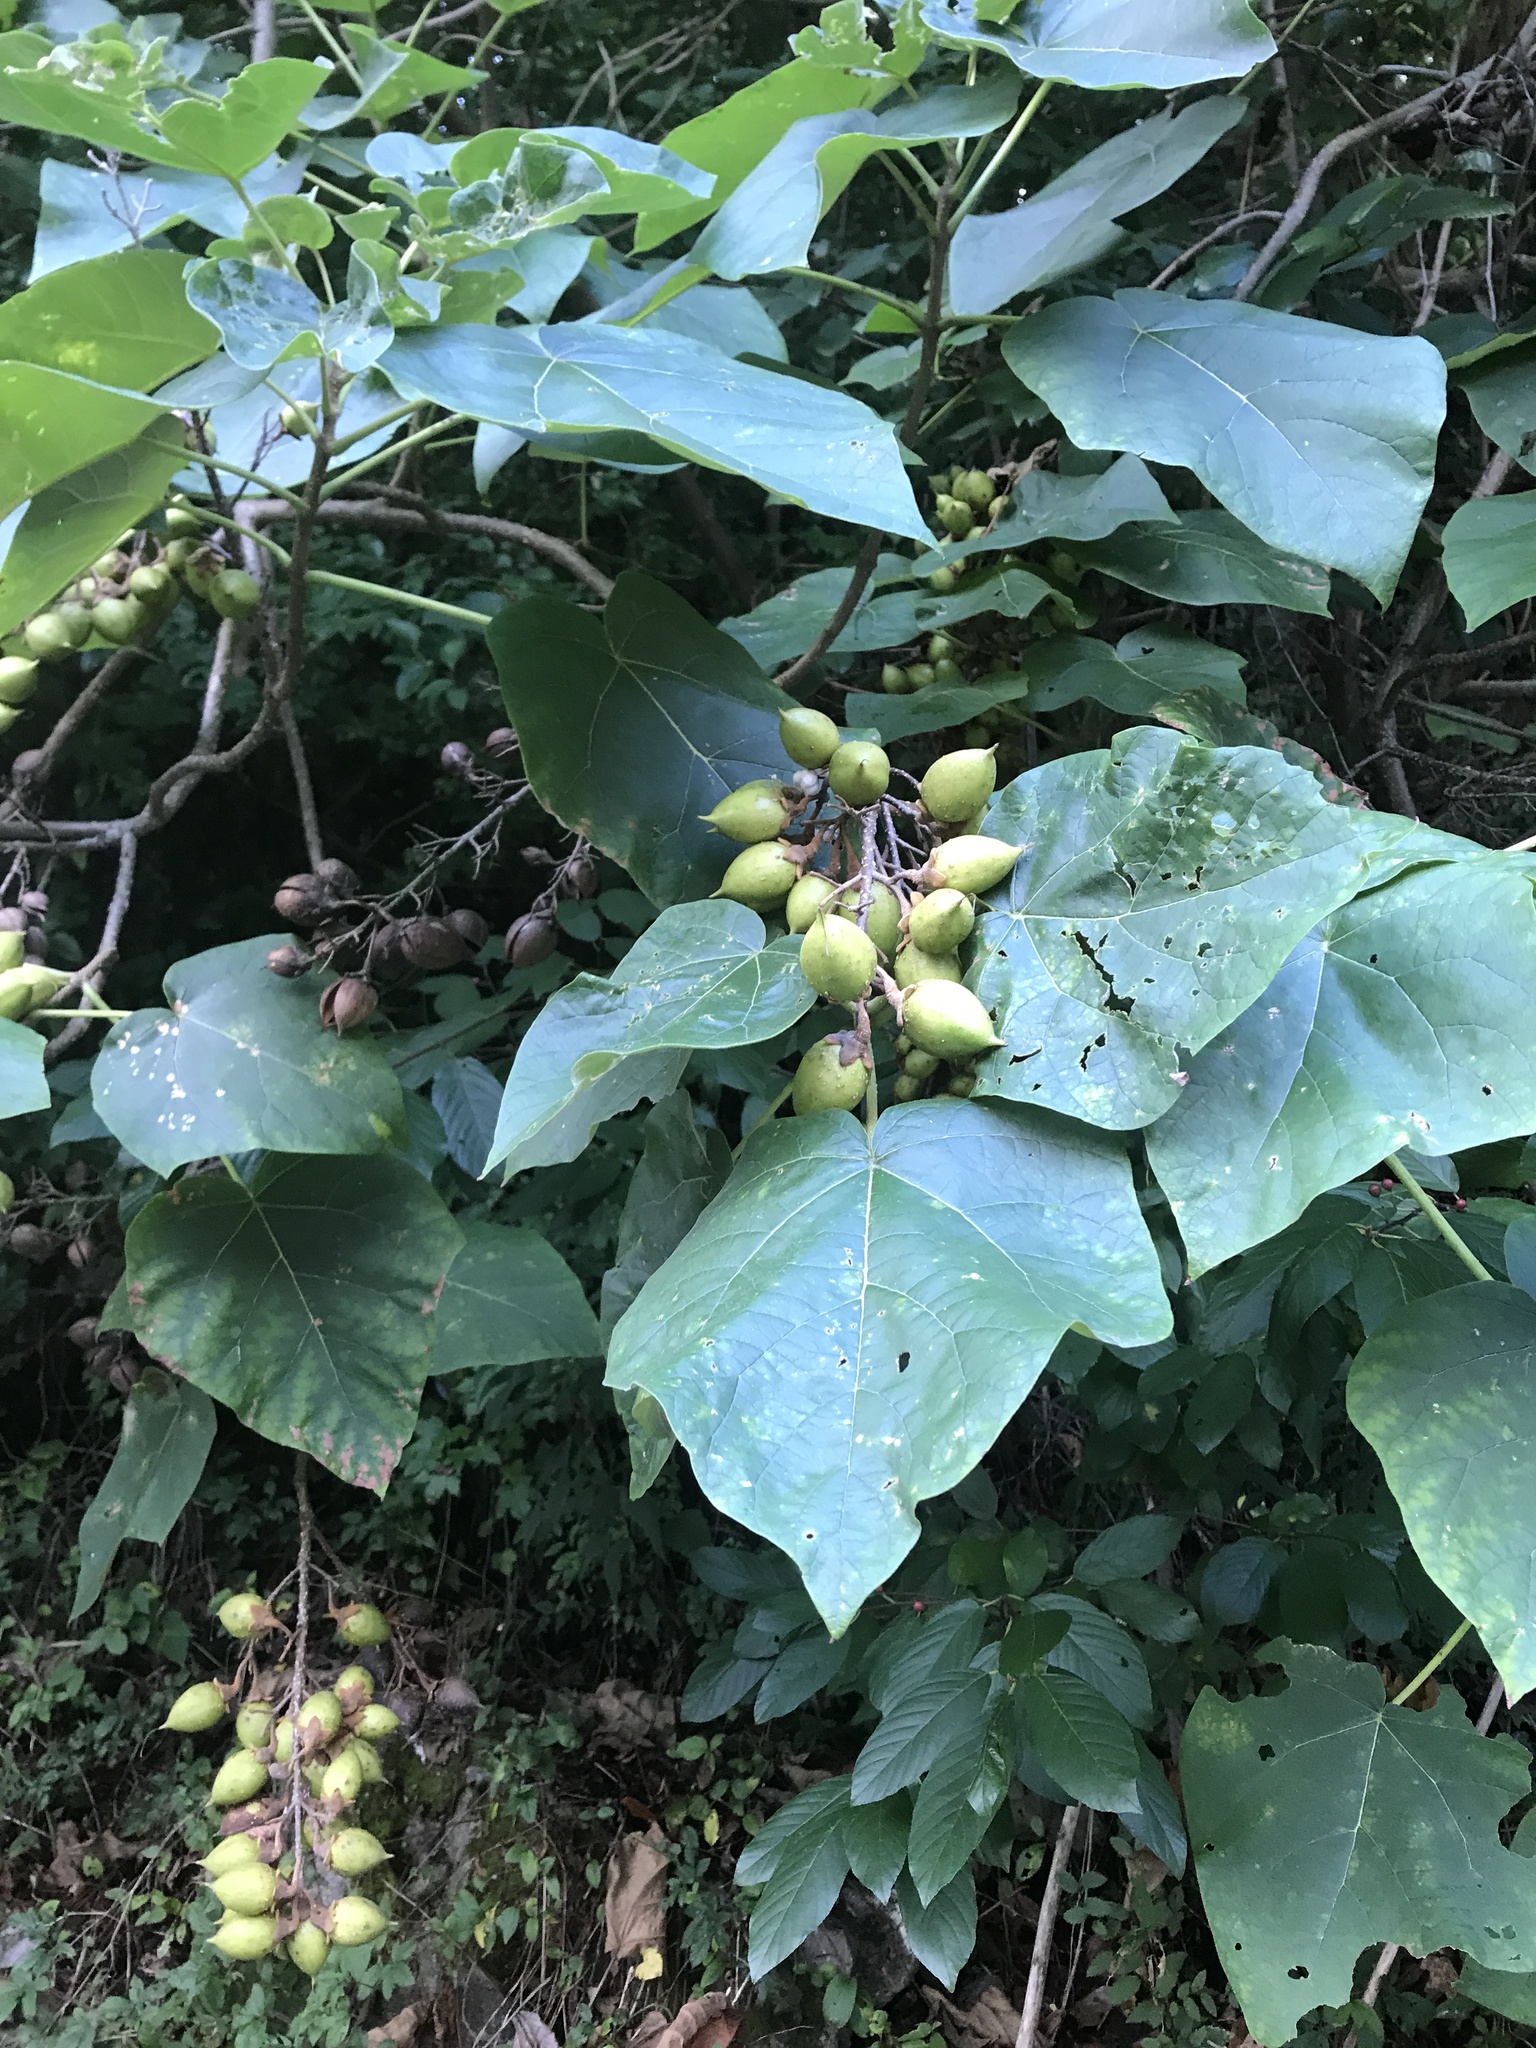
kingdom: Plantae
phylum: Tracheophyta
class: Magnoliopsida
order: Lamiales
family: Paulowniaceae
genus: Paulownia
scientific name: Paulownia tomentosa
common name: Foxglove-tree
